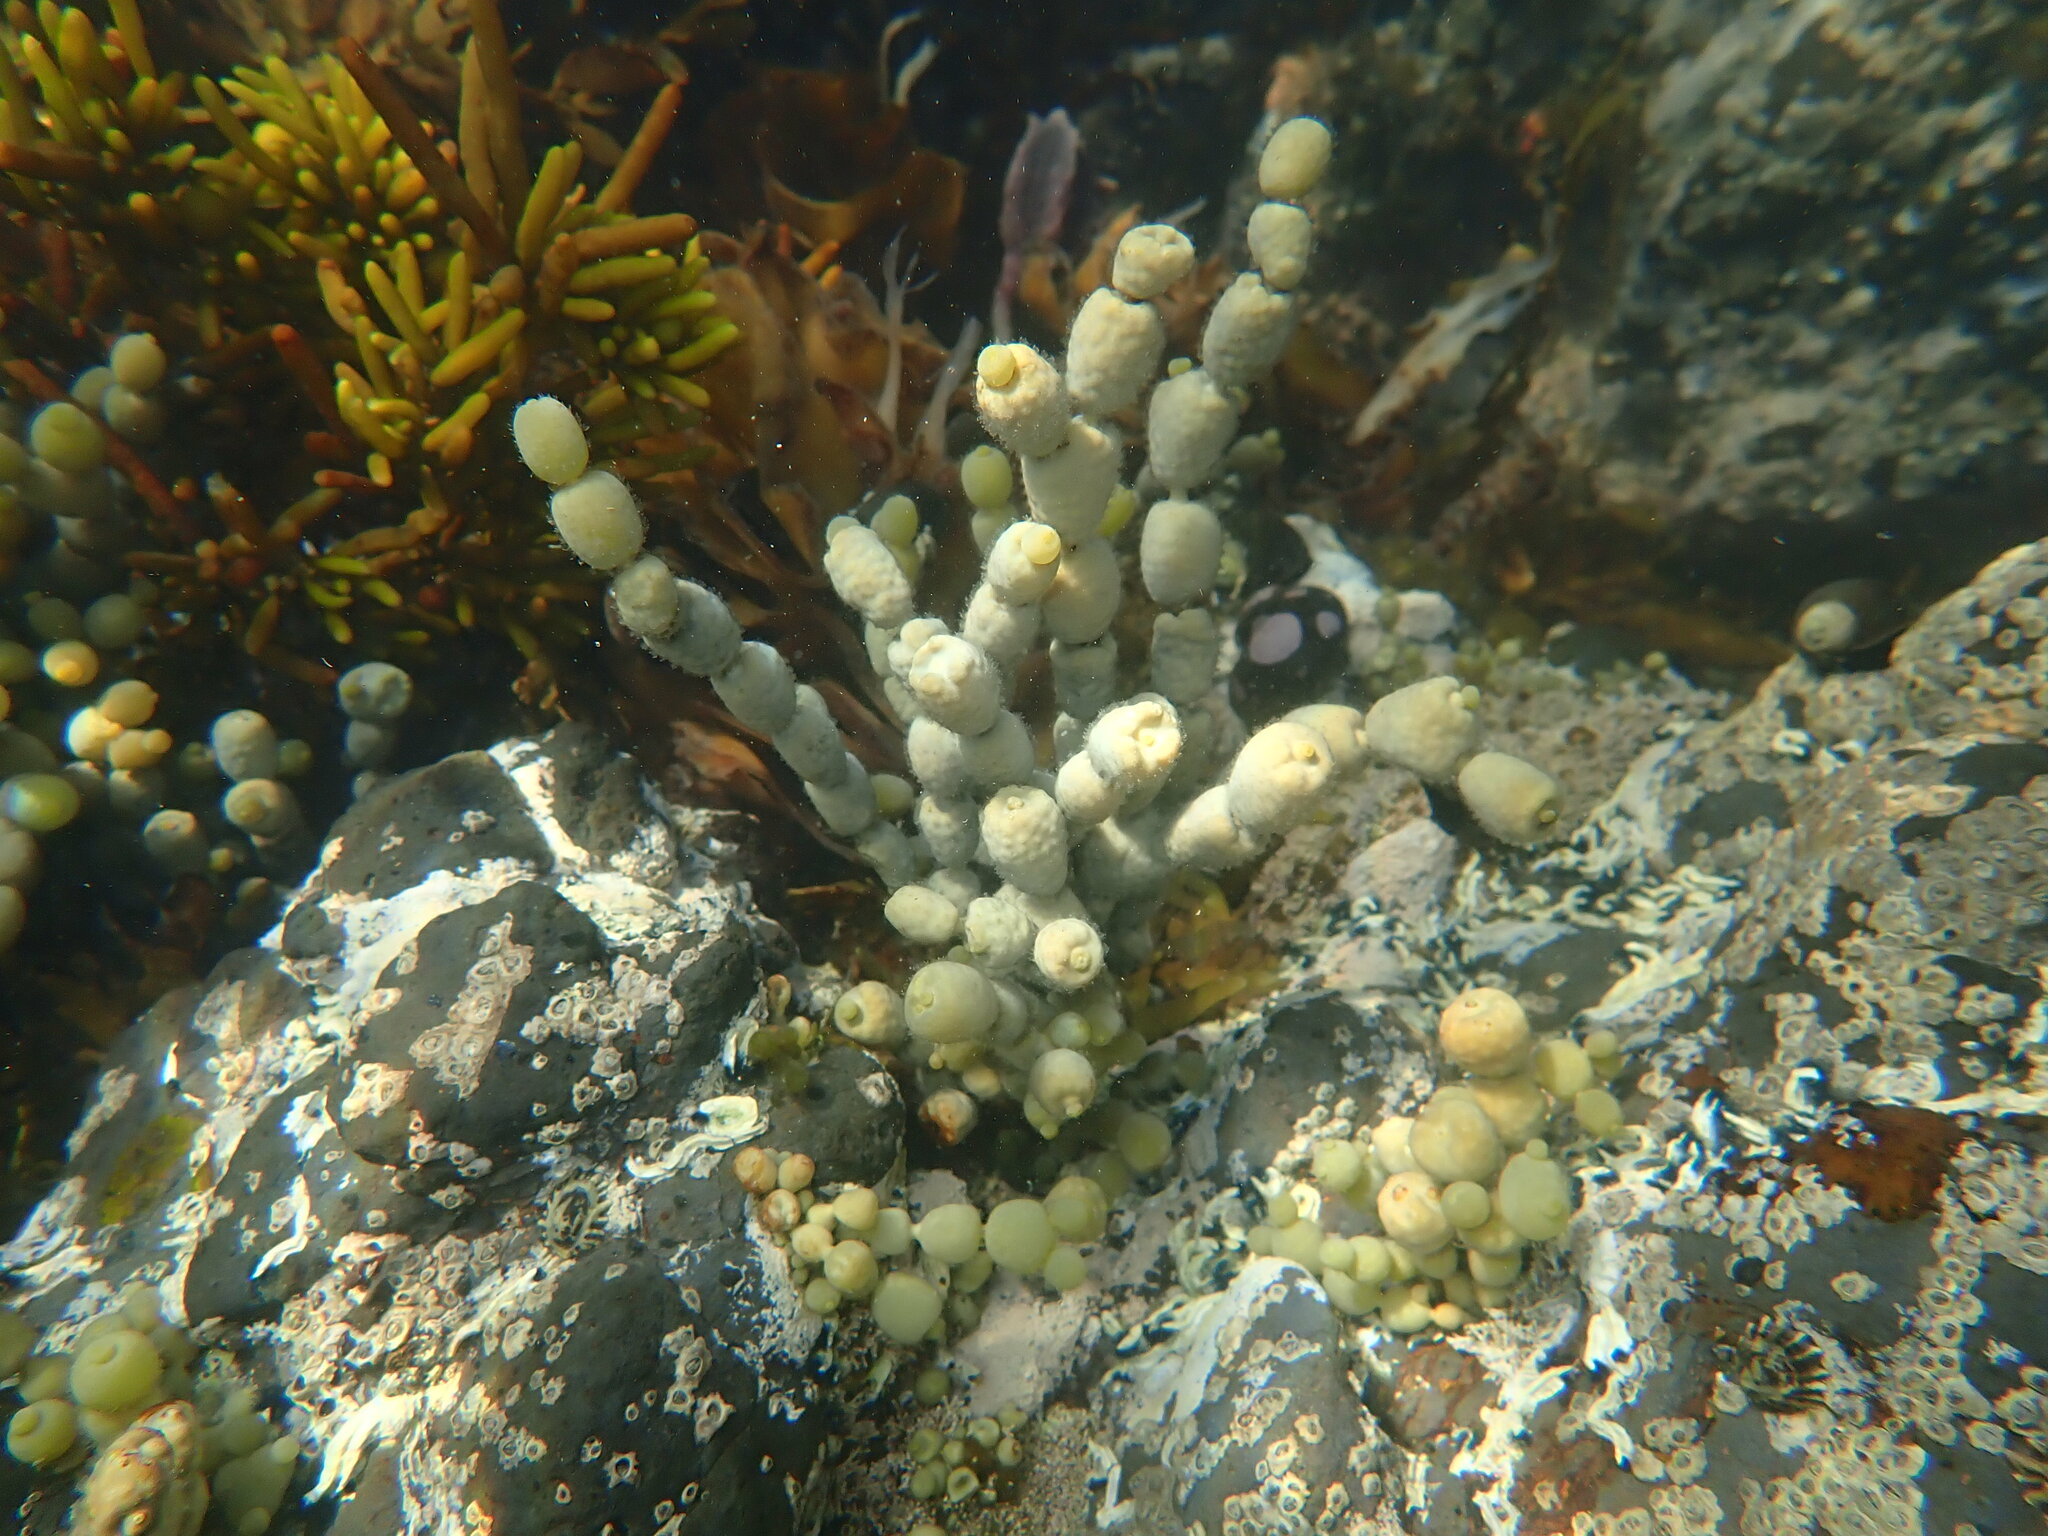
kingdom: Chromista
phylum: Ochrophyta
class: Phaeophyceae
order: Fucales
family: Hormosiraceae
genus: Hormosira
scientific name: Hormosira banksii
